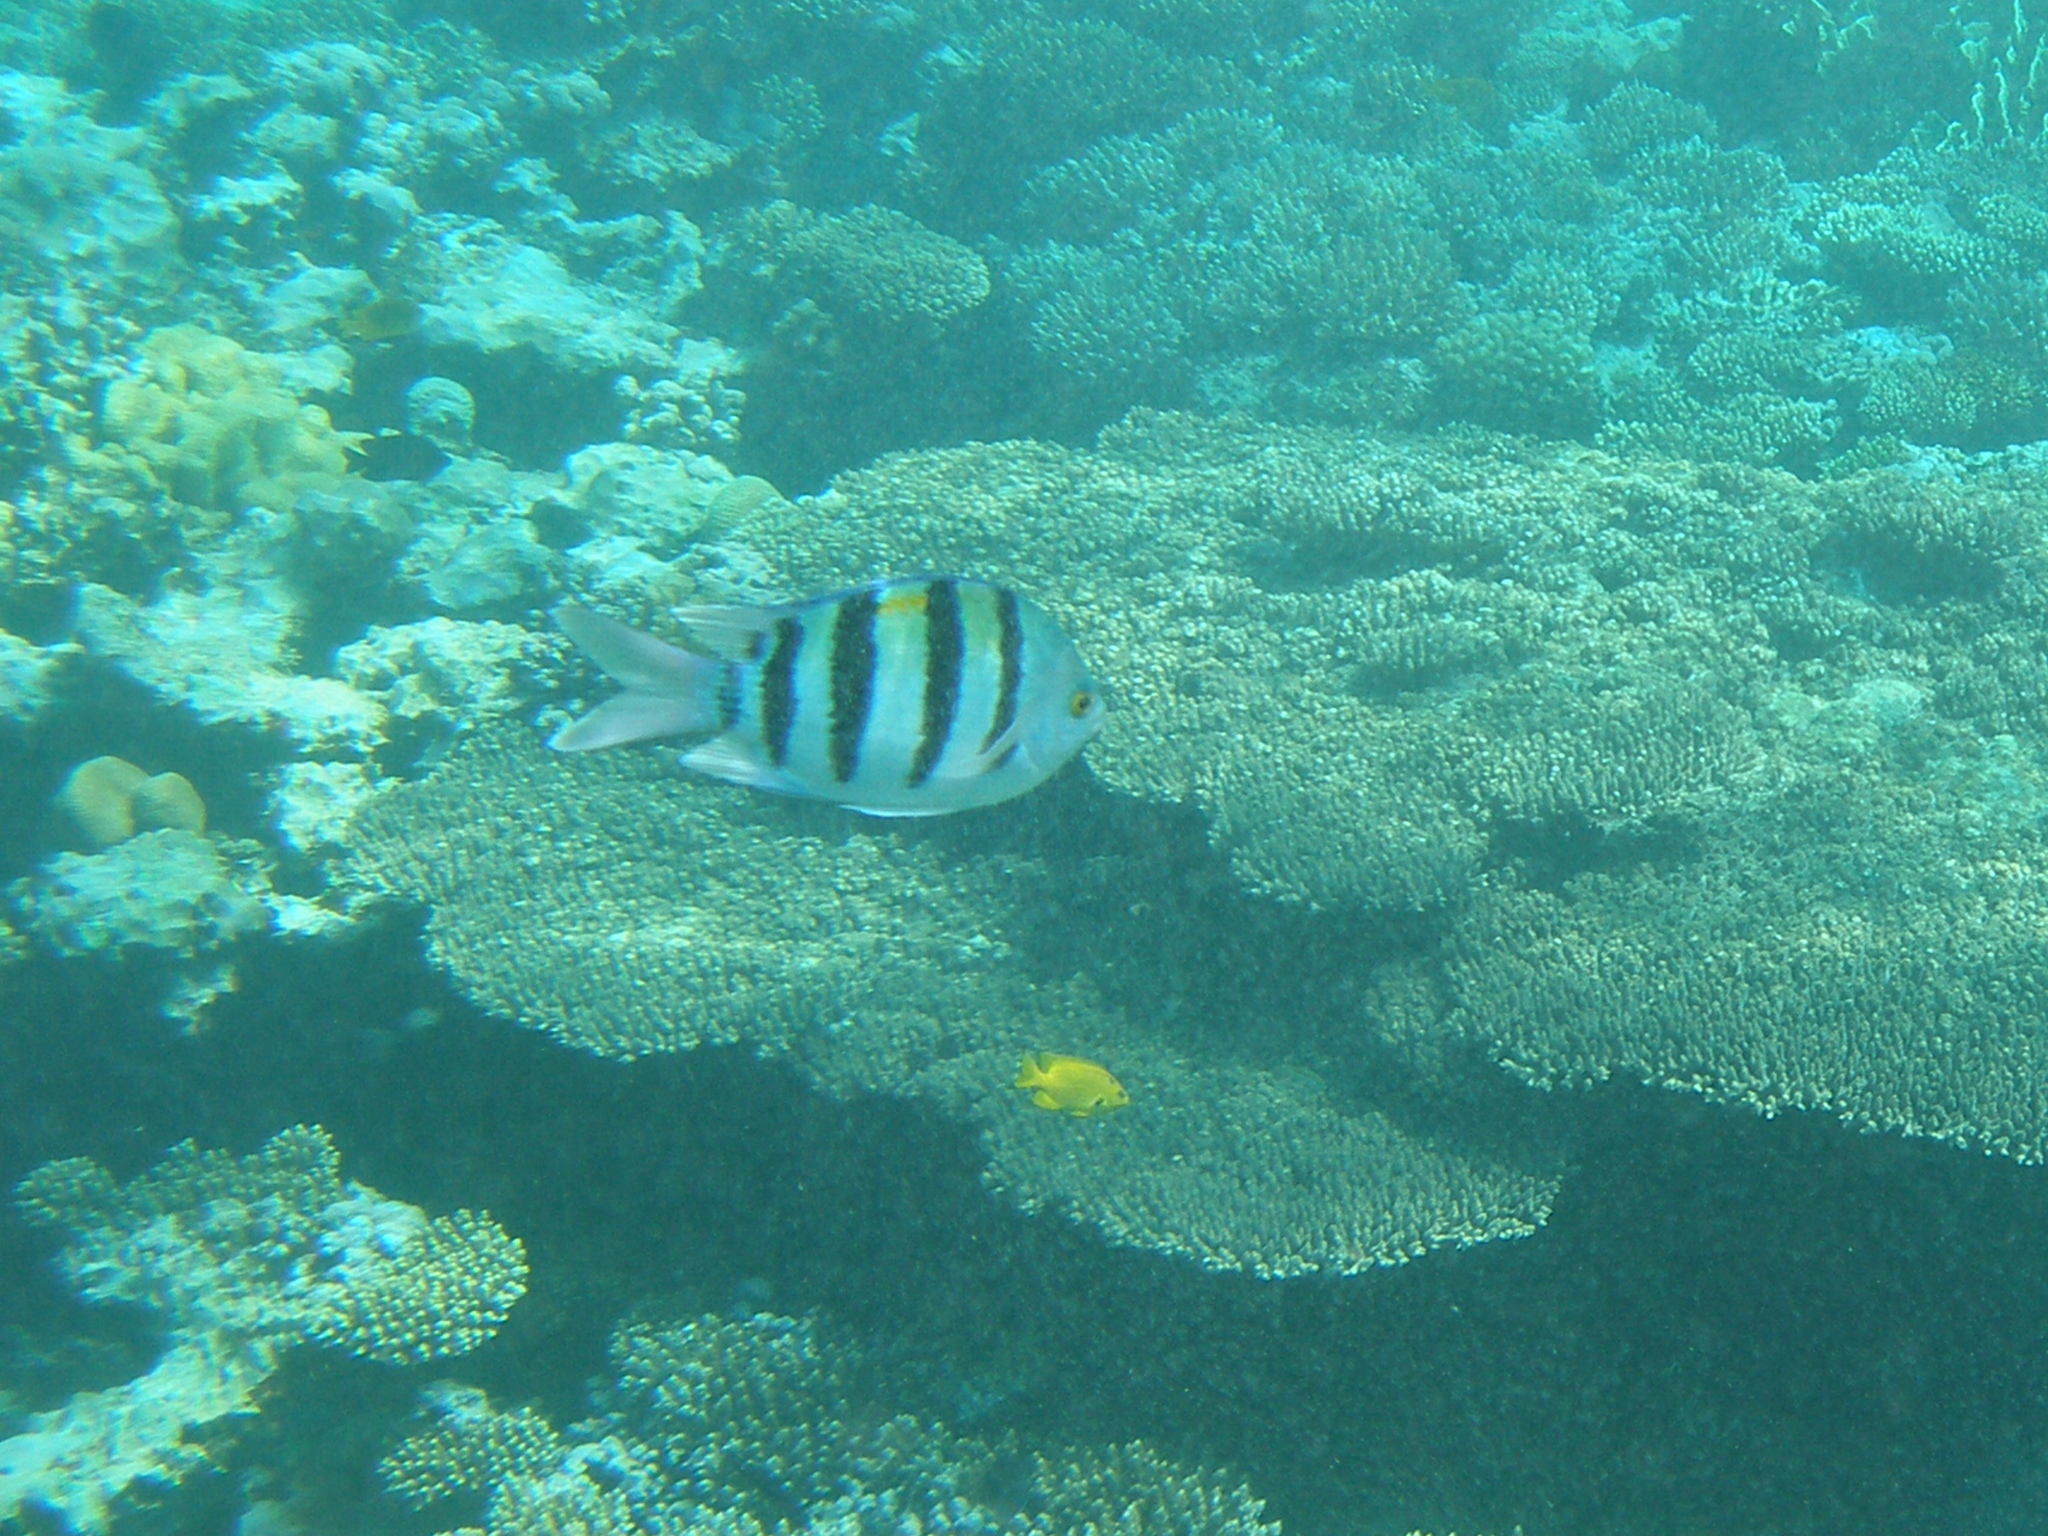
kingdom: Animalia
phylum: Chordata
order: Perciformes
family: Pomacentridae
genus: Abudefduf
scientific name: Abudefduf vaigiensis
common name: Indo-pacific sergeant
